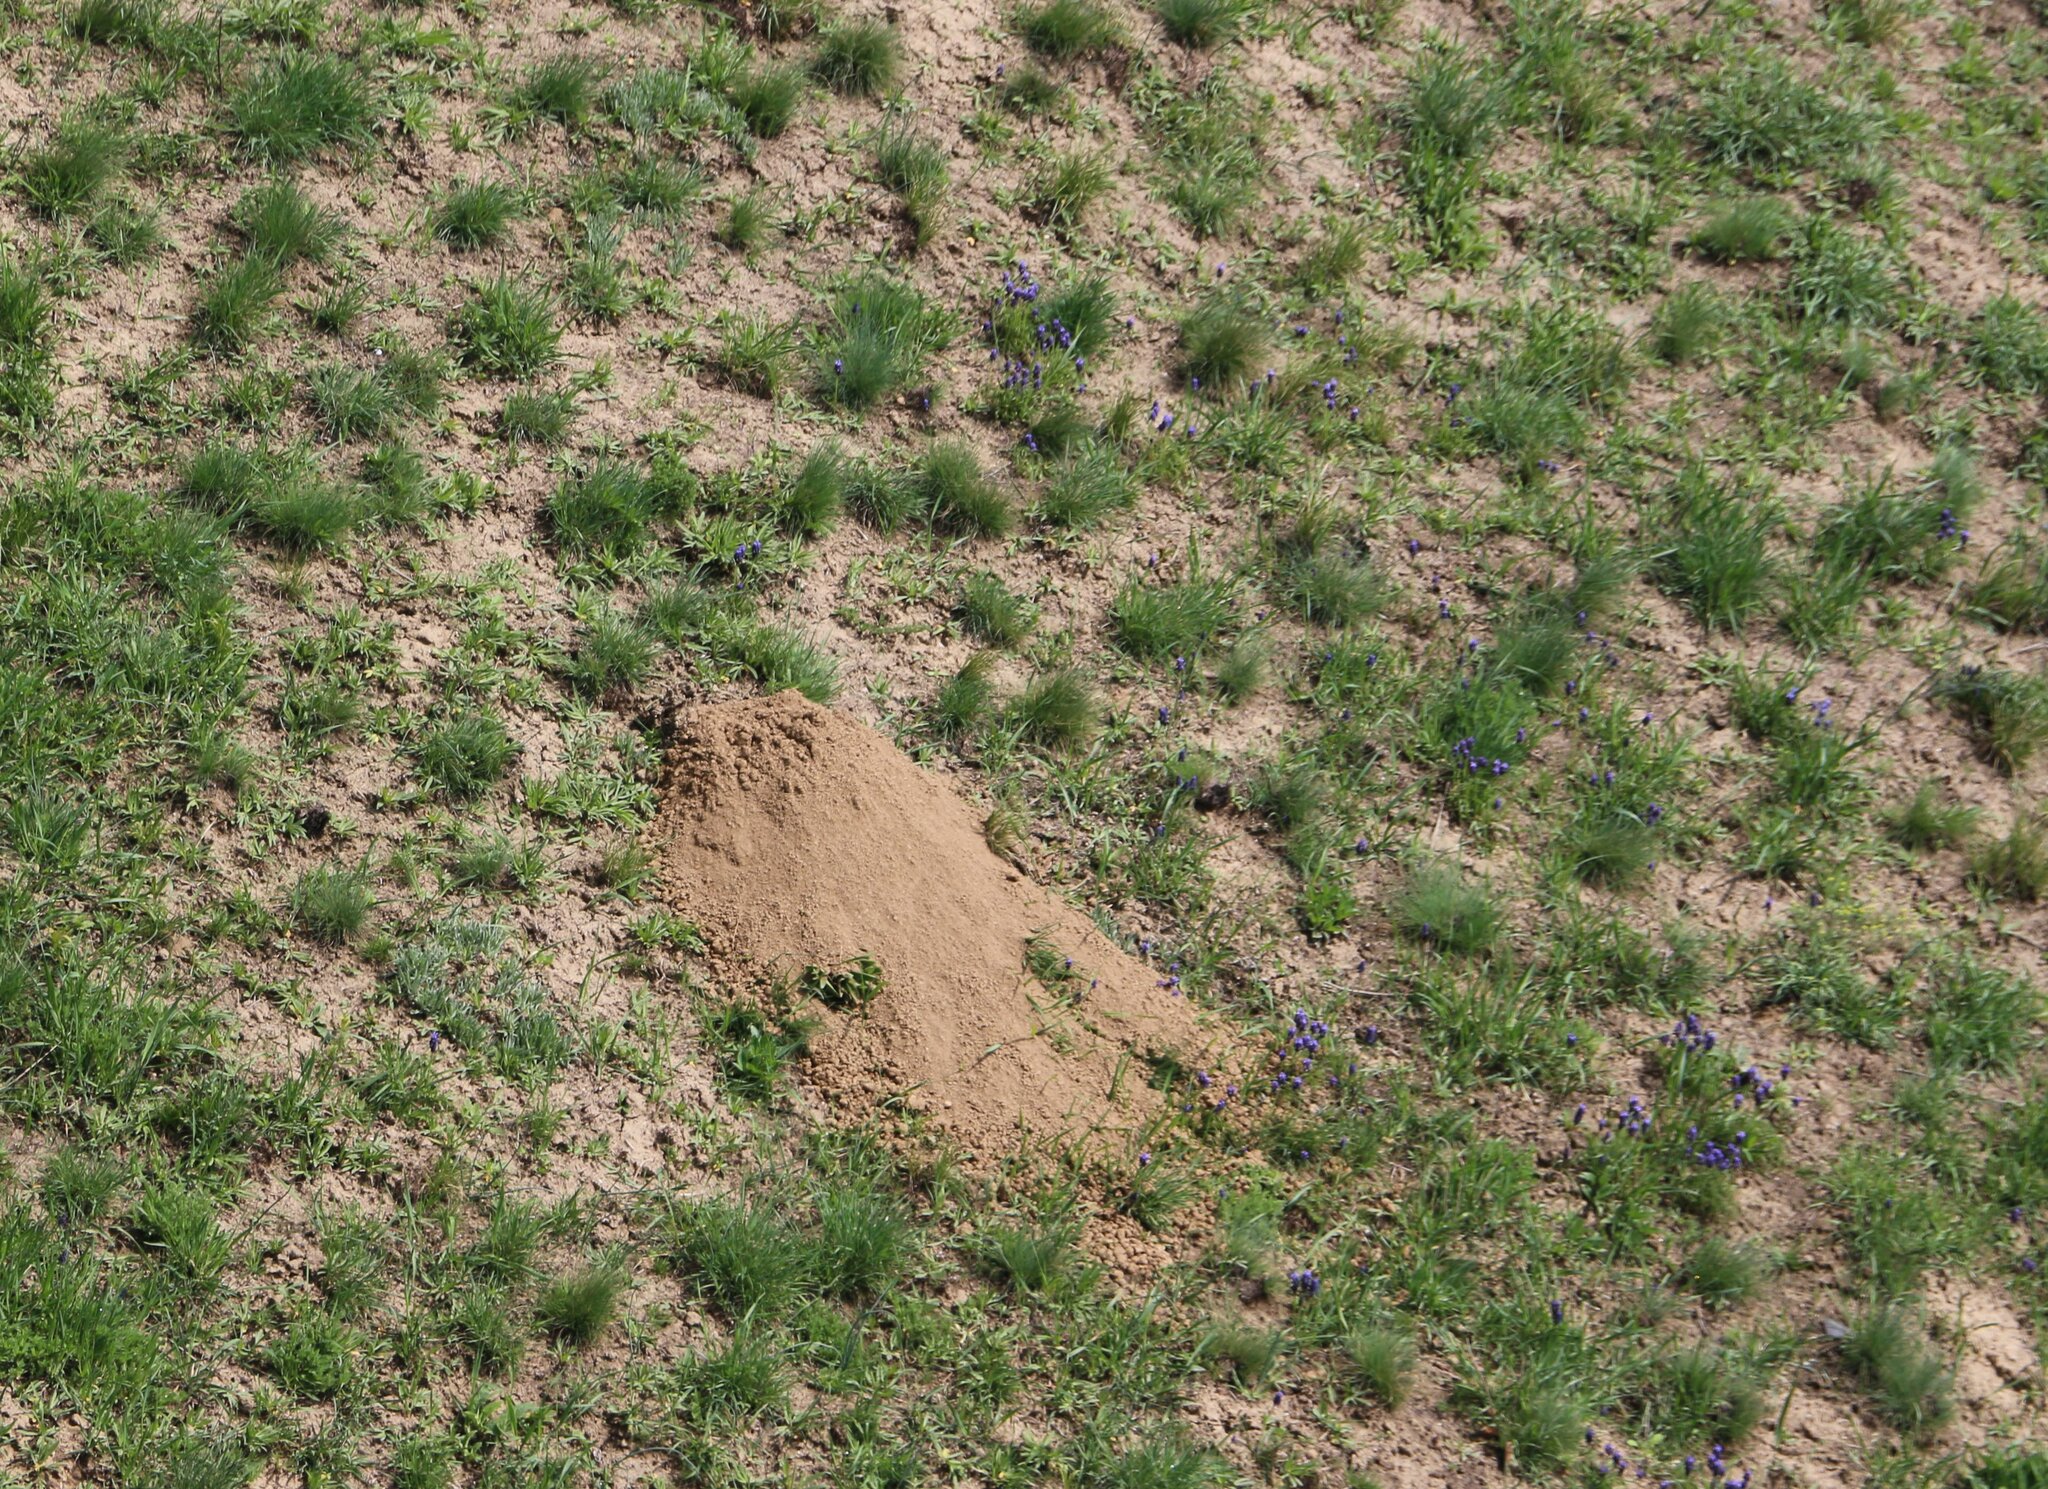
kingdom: Animalia
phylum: Chordata
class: Mammalia
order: Rodentia
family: Spalacidae
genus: Spalax
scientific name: Spalax microphthalmus
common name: Greater mole rat
